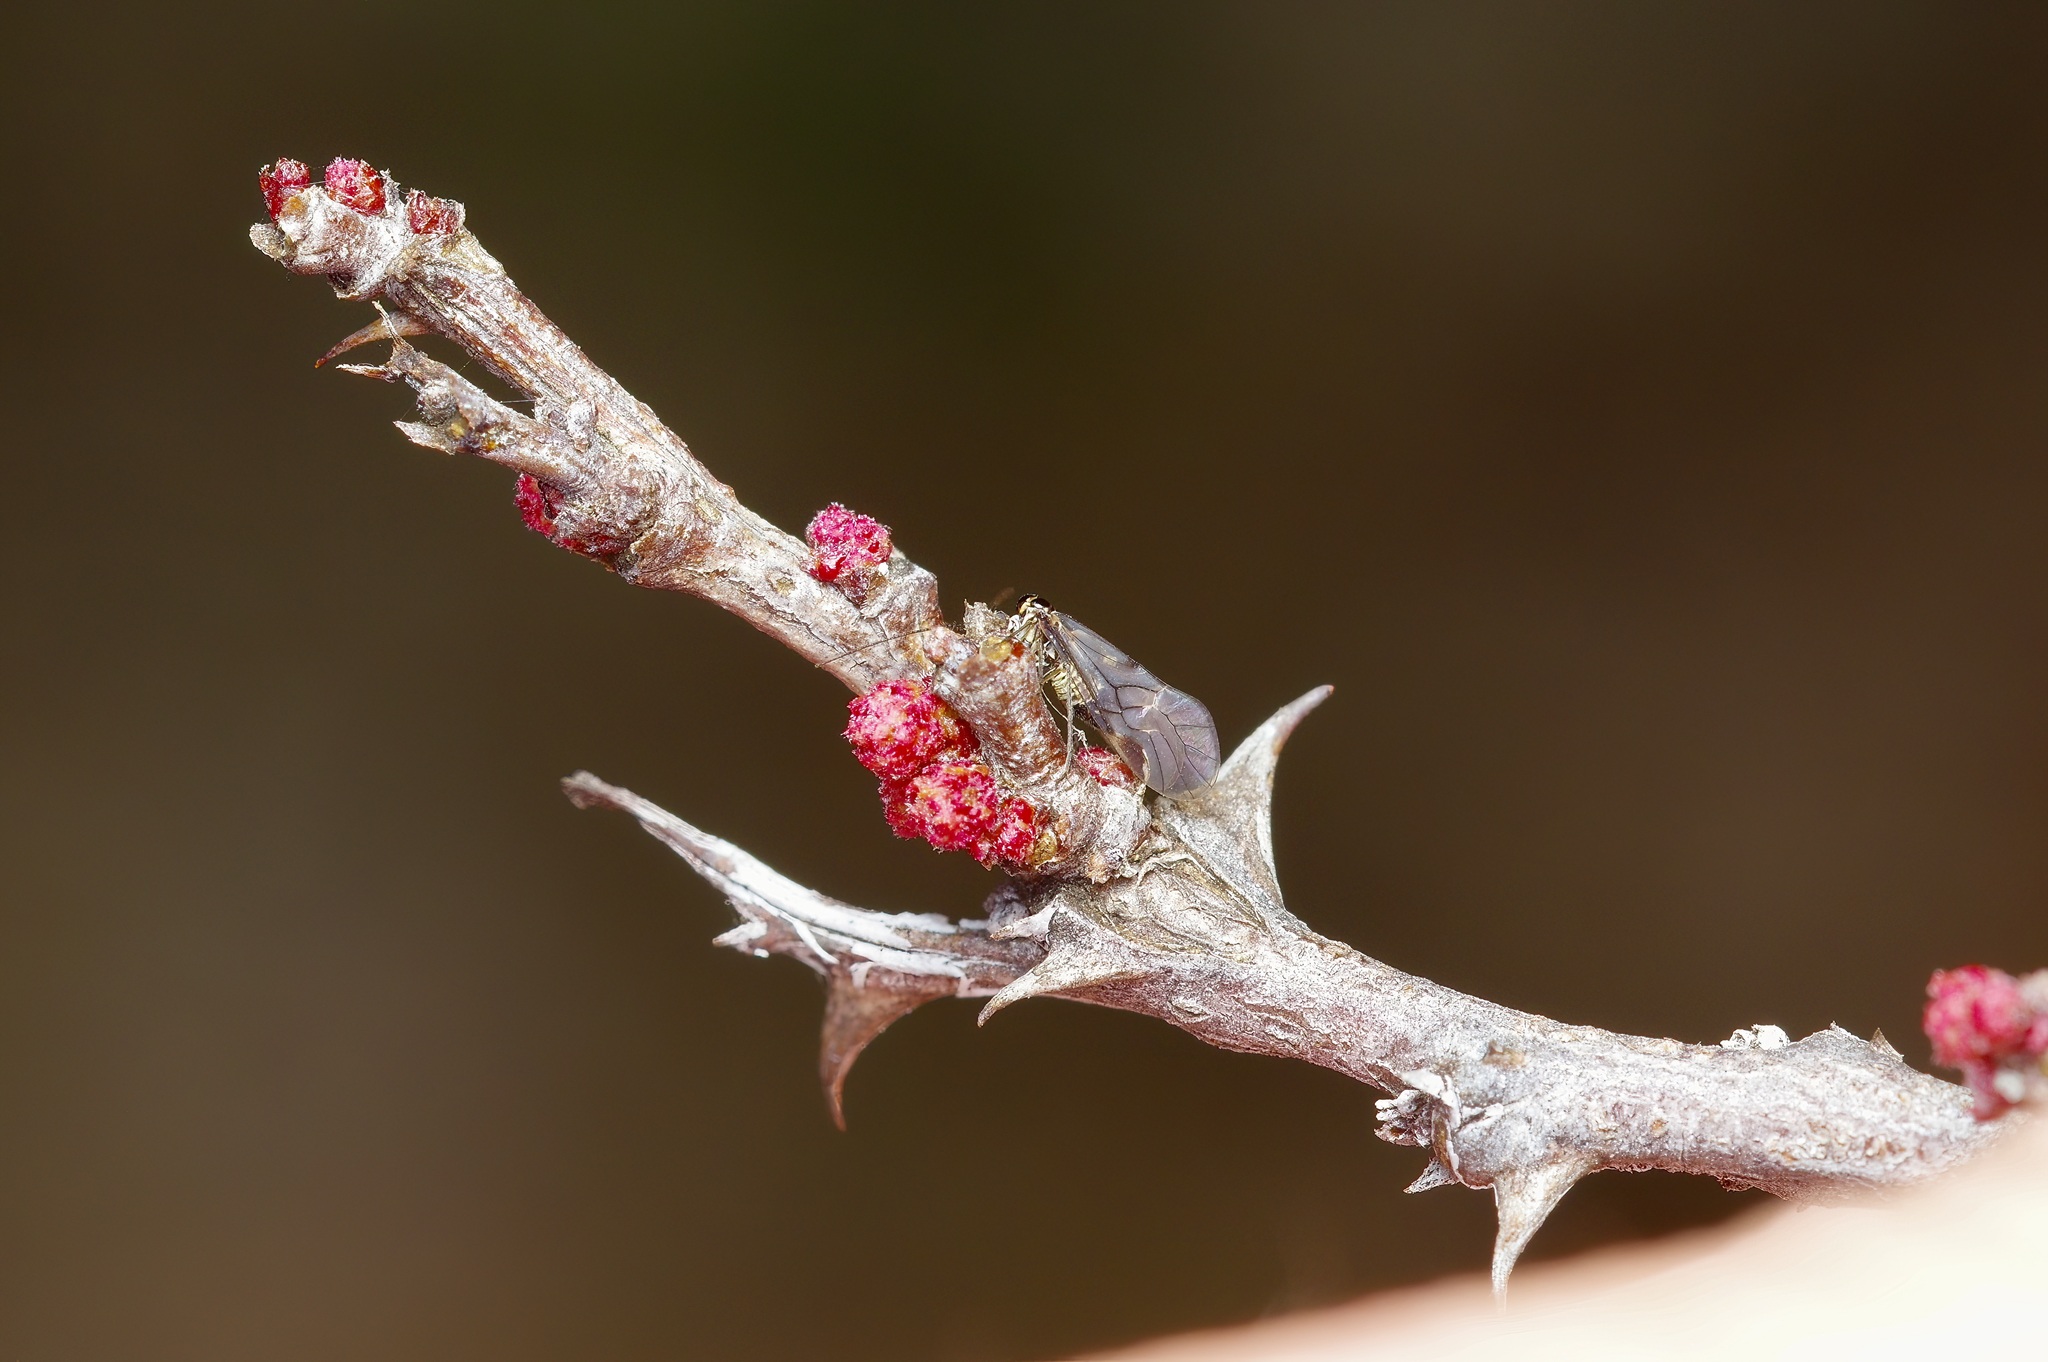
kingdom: Plantae
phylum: Tracheophyta
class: Magnoliopsida
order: Fabales
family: Fabaceae
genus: Senegalia
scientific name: Senegalia roemeriana
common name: Roemer's acacia
